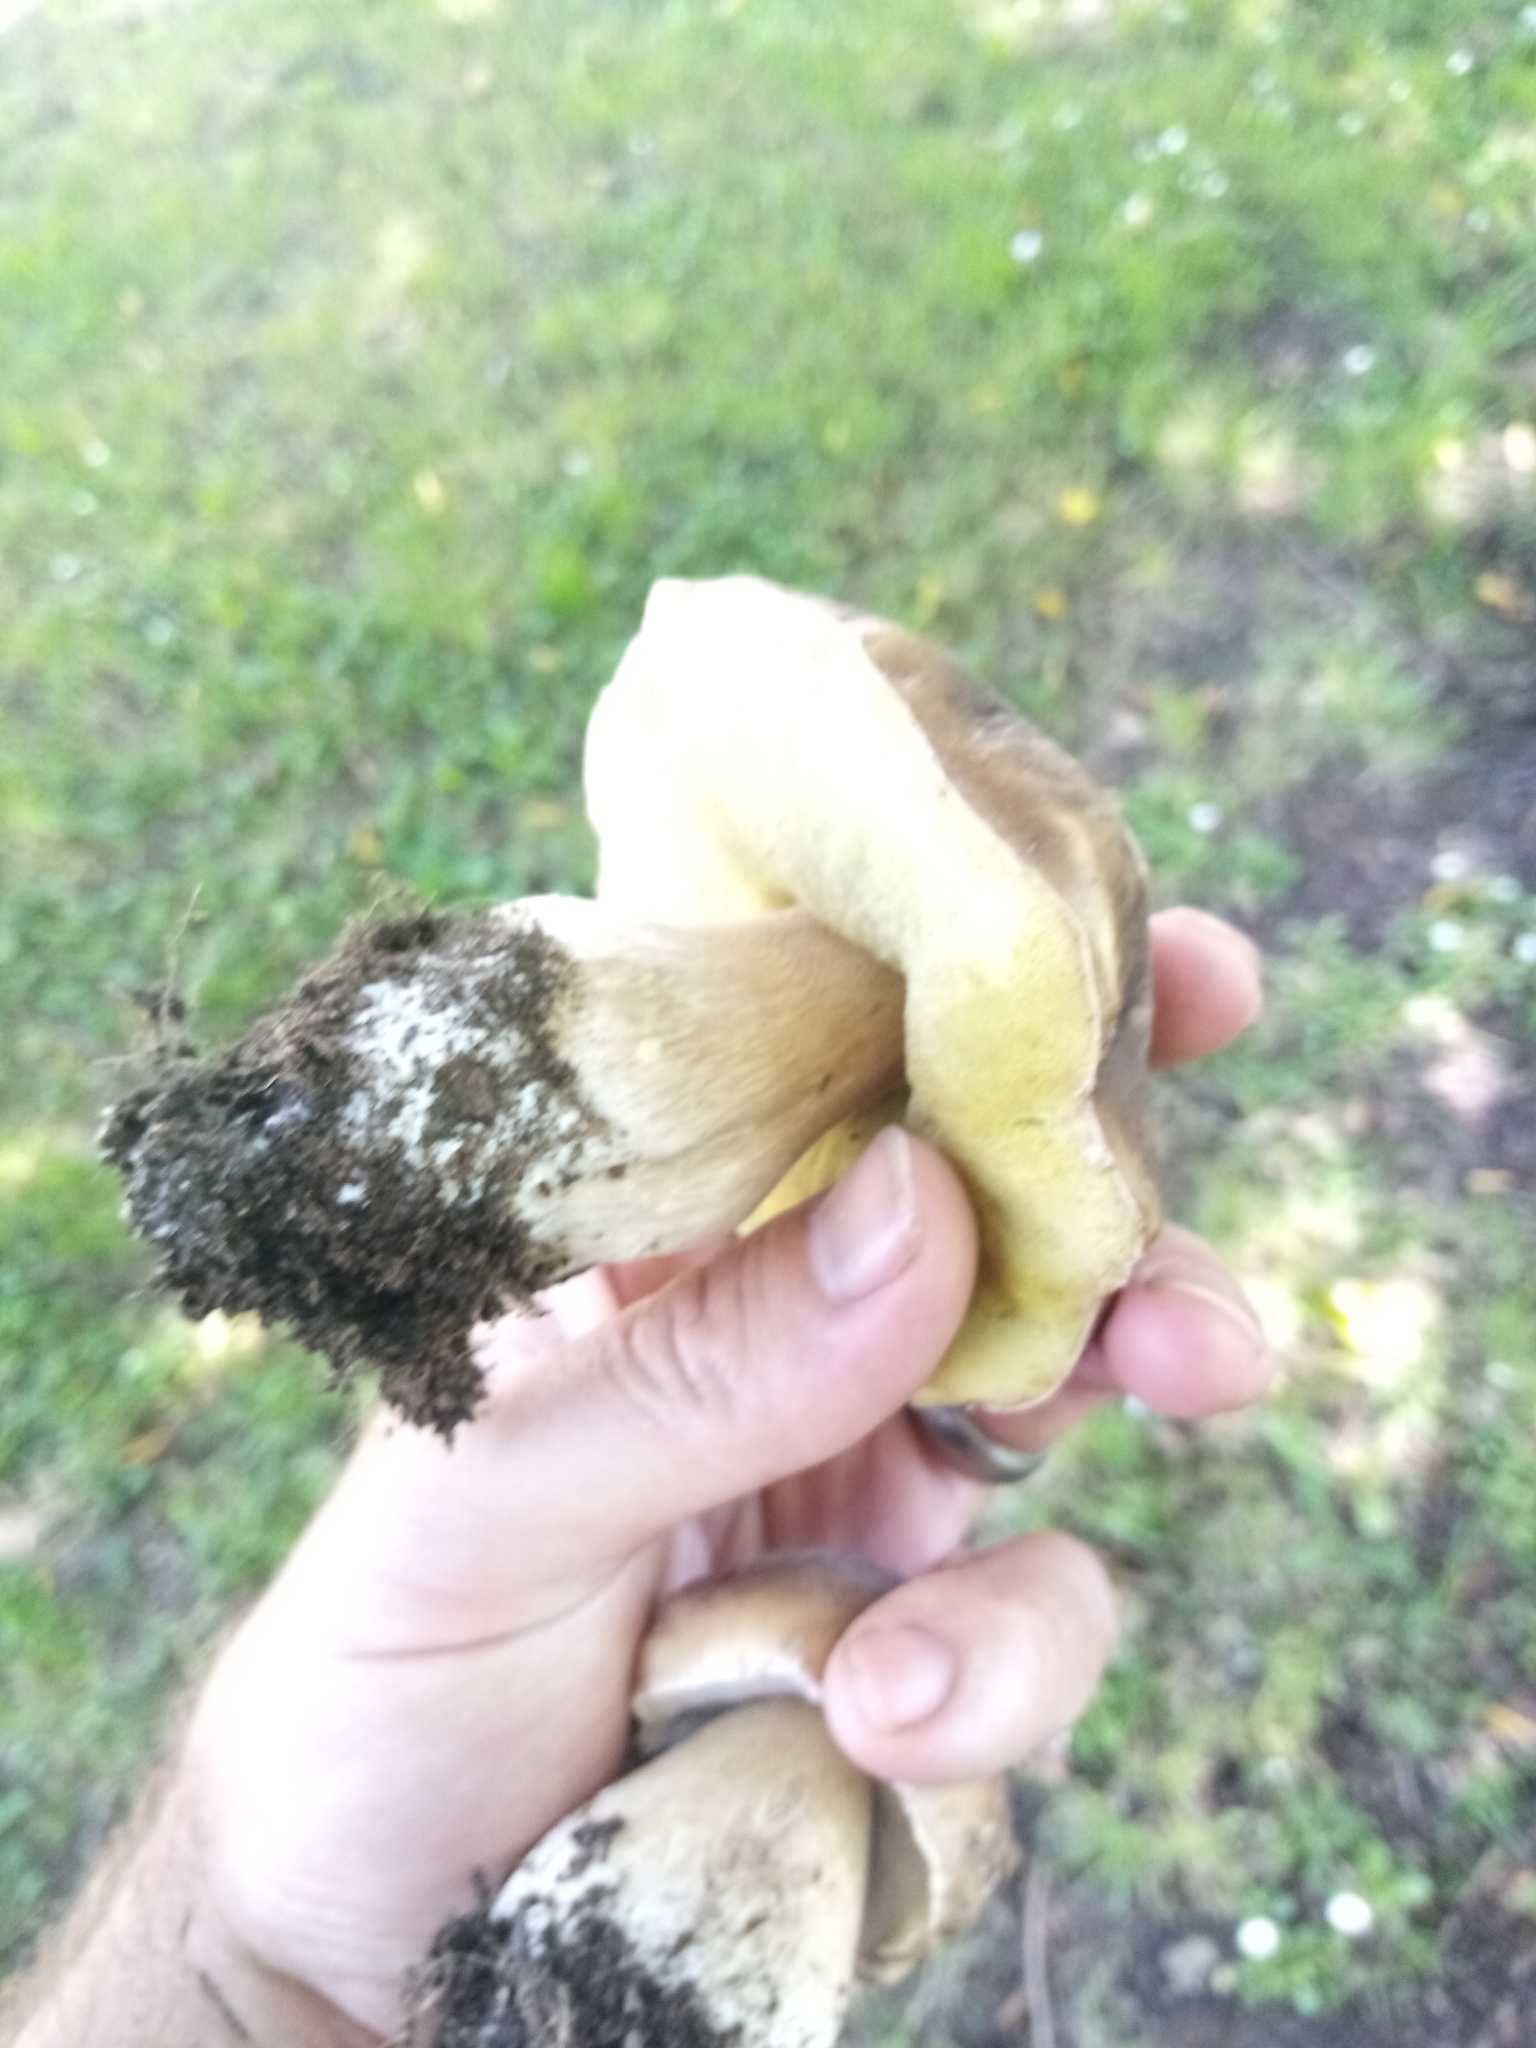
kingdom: Fungi
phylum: Basidiomycota
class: Agaricomycetes
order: Boletales
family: Boletaceae
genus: Boletus
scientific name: Boletus edulis
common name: Cep
